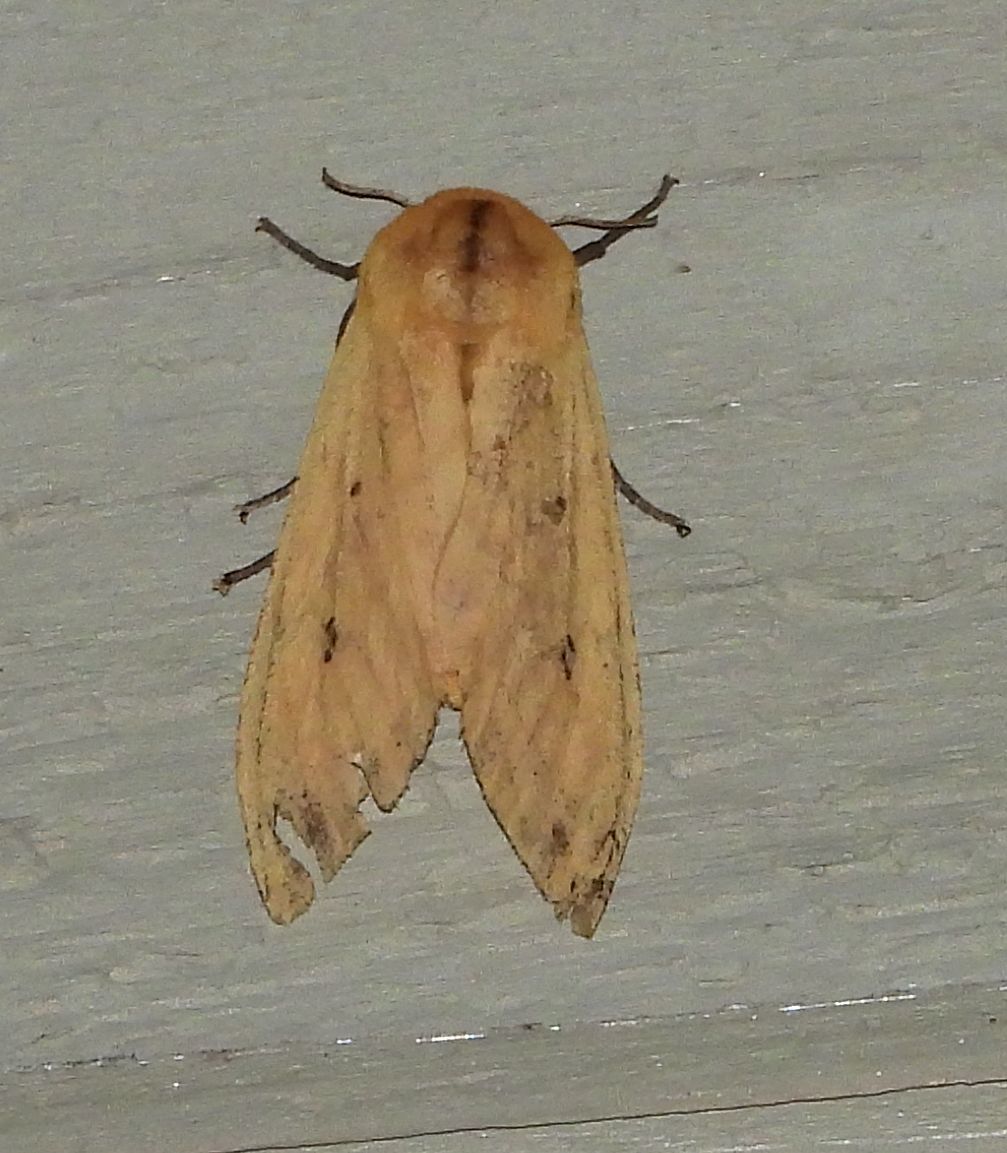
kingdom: Animalia
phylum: Arthropoda
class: Insecta
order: Lepidoptera
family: Erebidae
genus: Pyrrharctia
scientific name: Pyrrharctia isabella
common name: Isabella tiger moth
